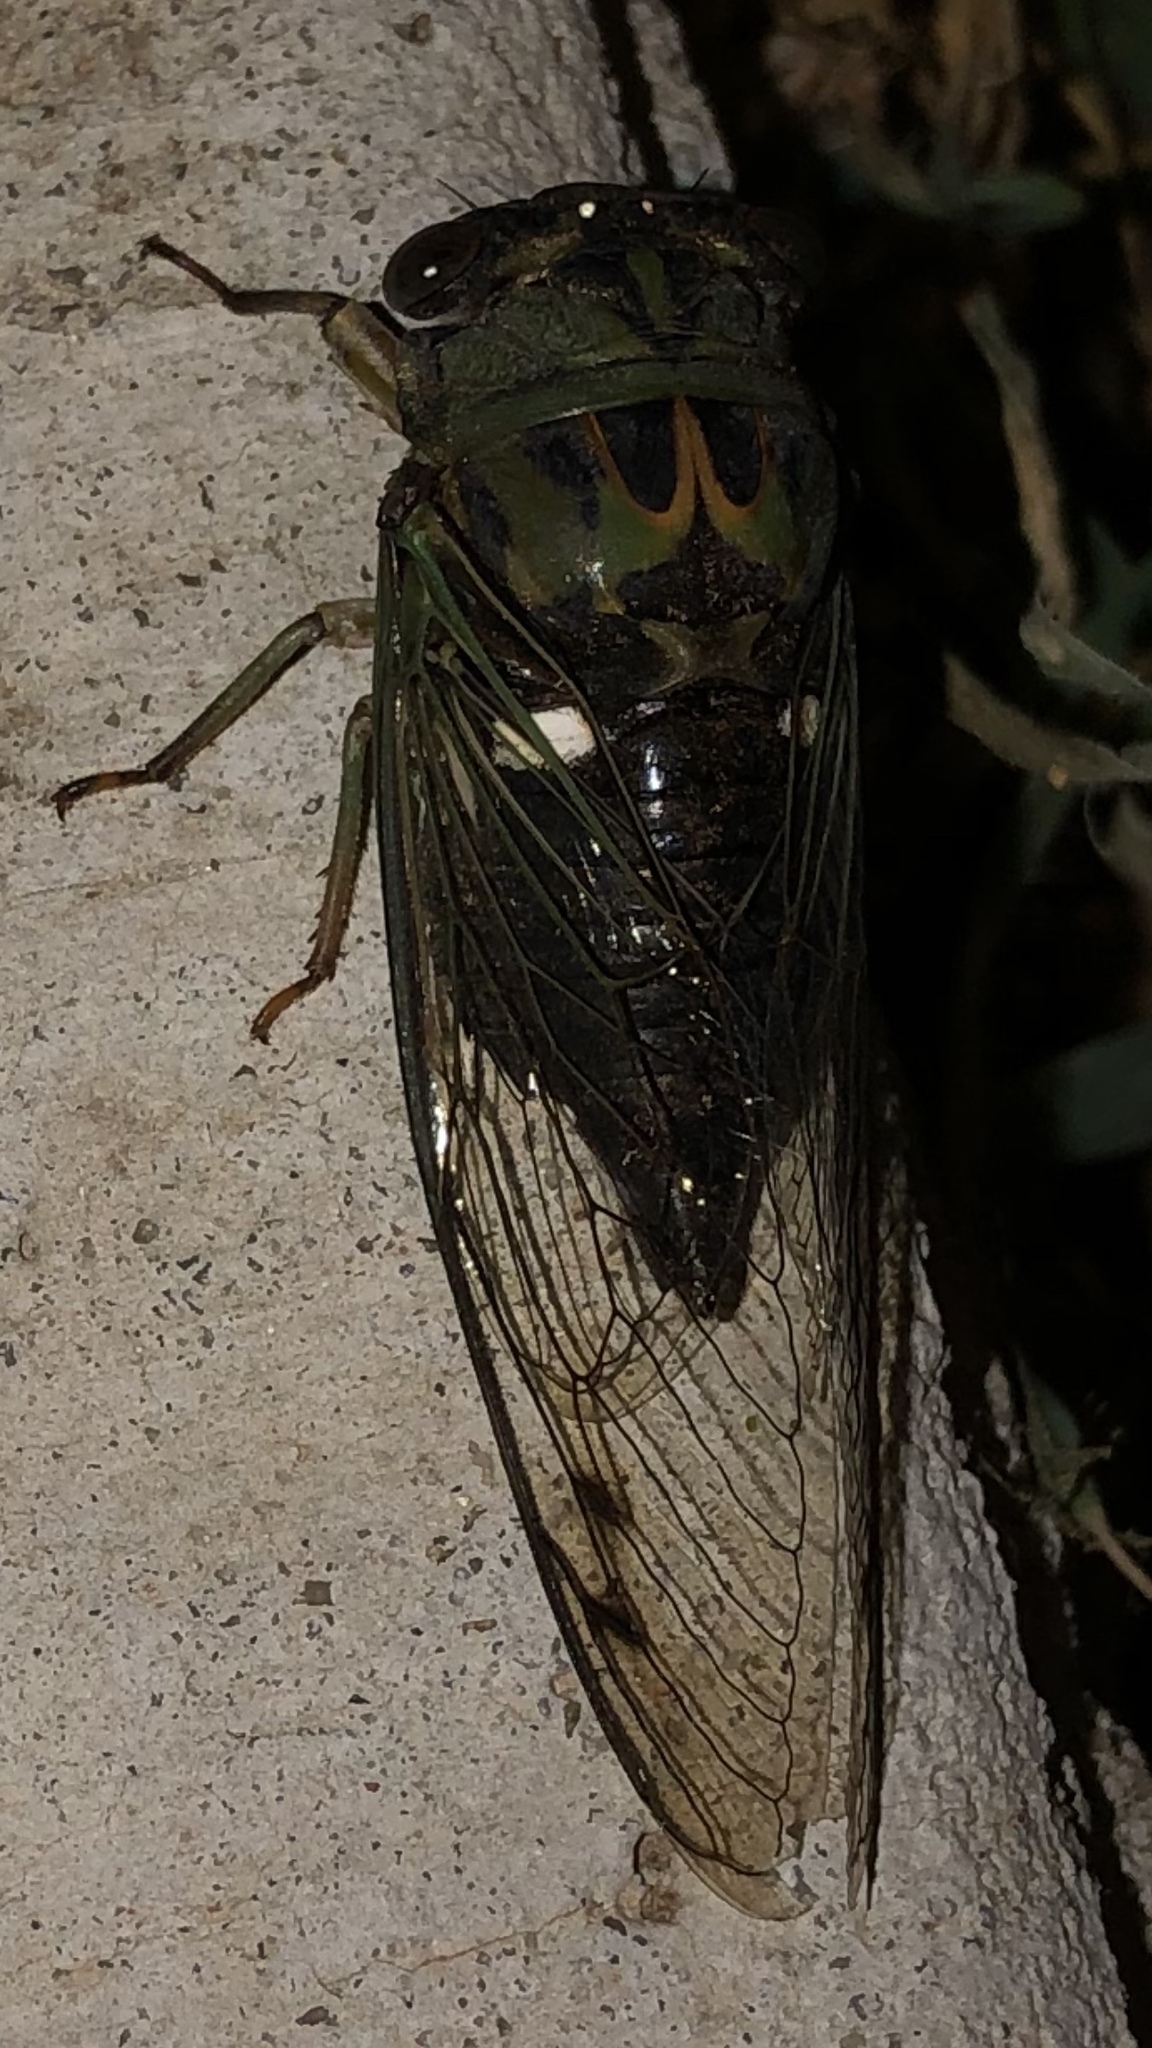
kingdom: Animalia
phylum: Arthropoda
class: Insecta
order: Hemiptera
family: Cicadidae
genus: Neotibicen
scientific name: Neotibicen pruinosus
